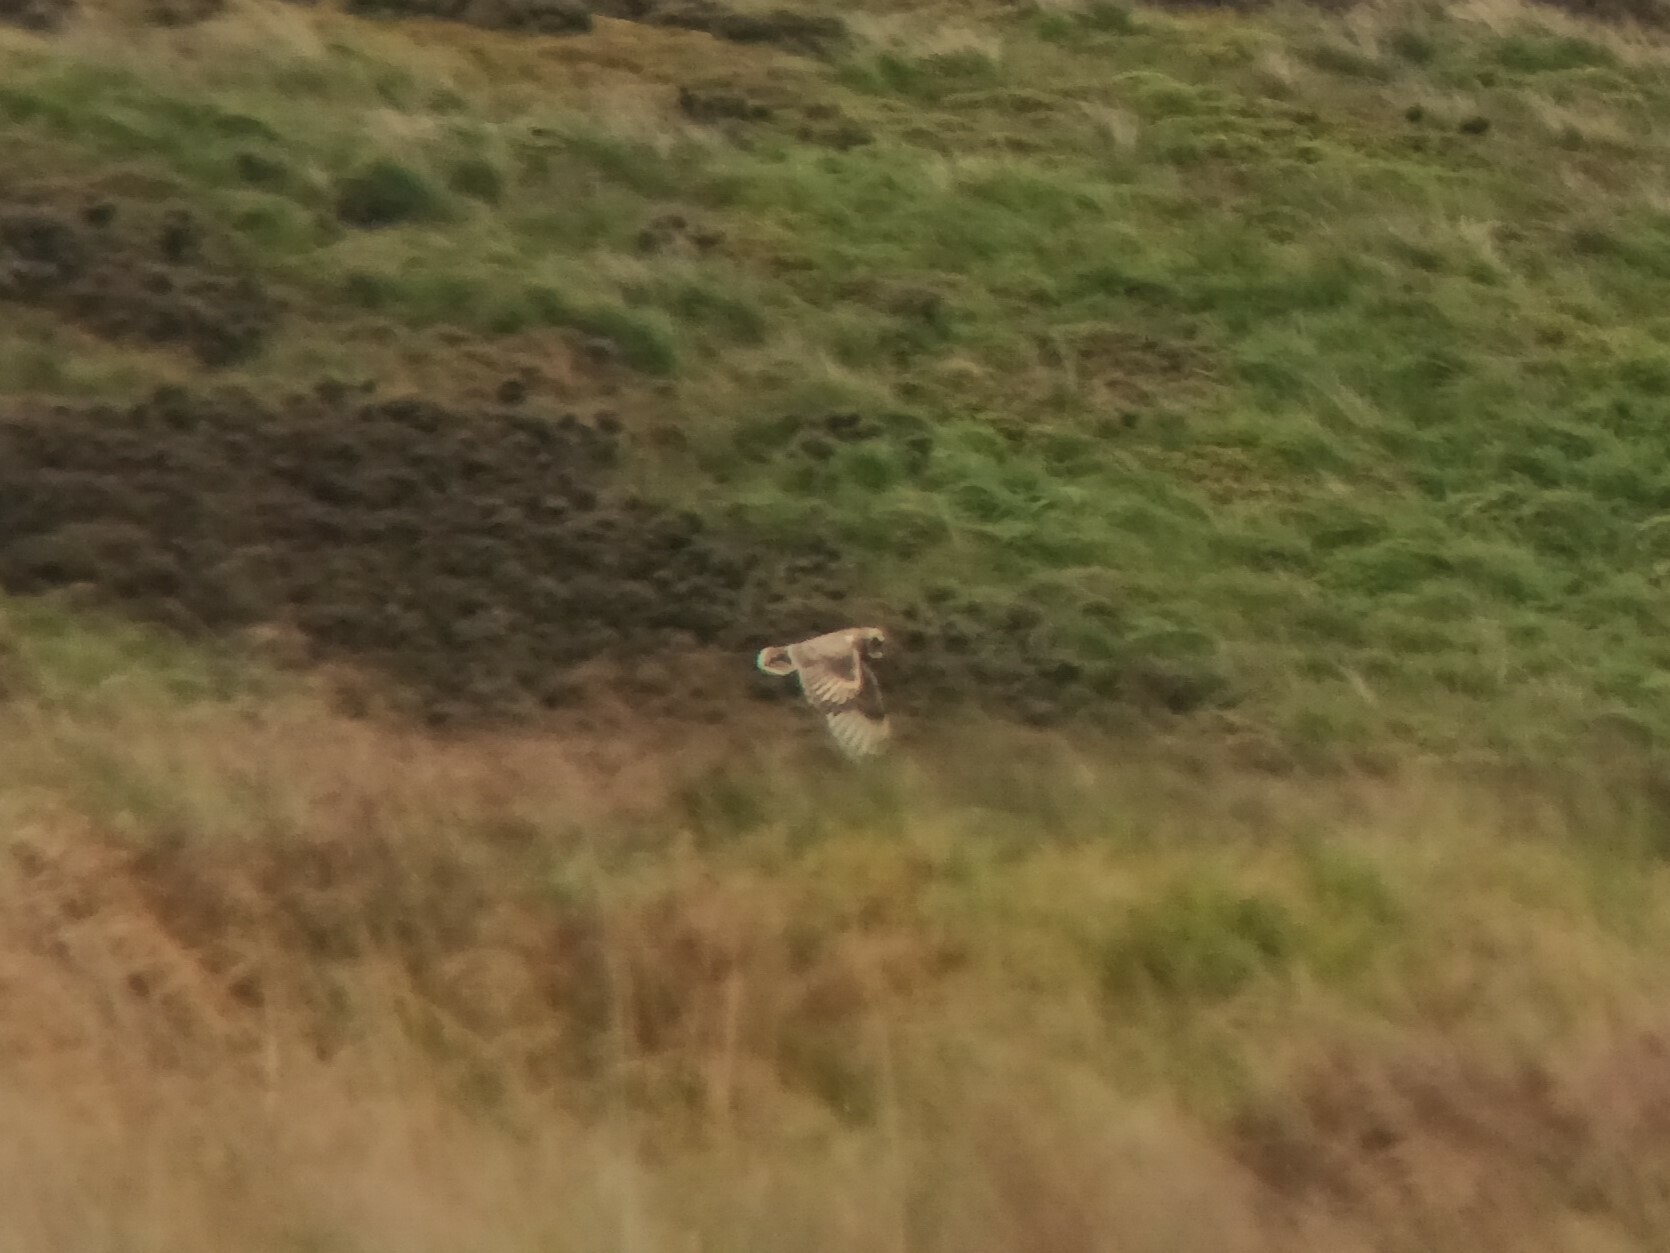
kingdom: Animalia
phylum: Chordata
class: Aves
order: Strigiformes
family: Strigidae
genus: Asio
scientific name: Asio flammeus
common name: Short-eared owl
